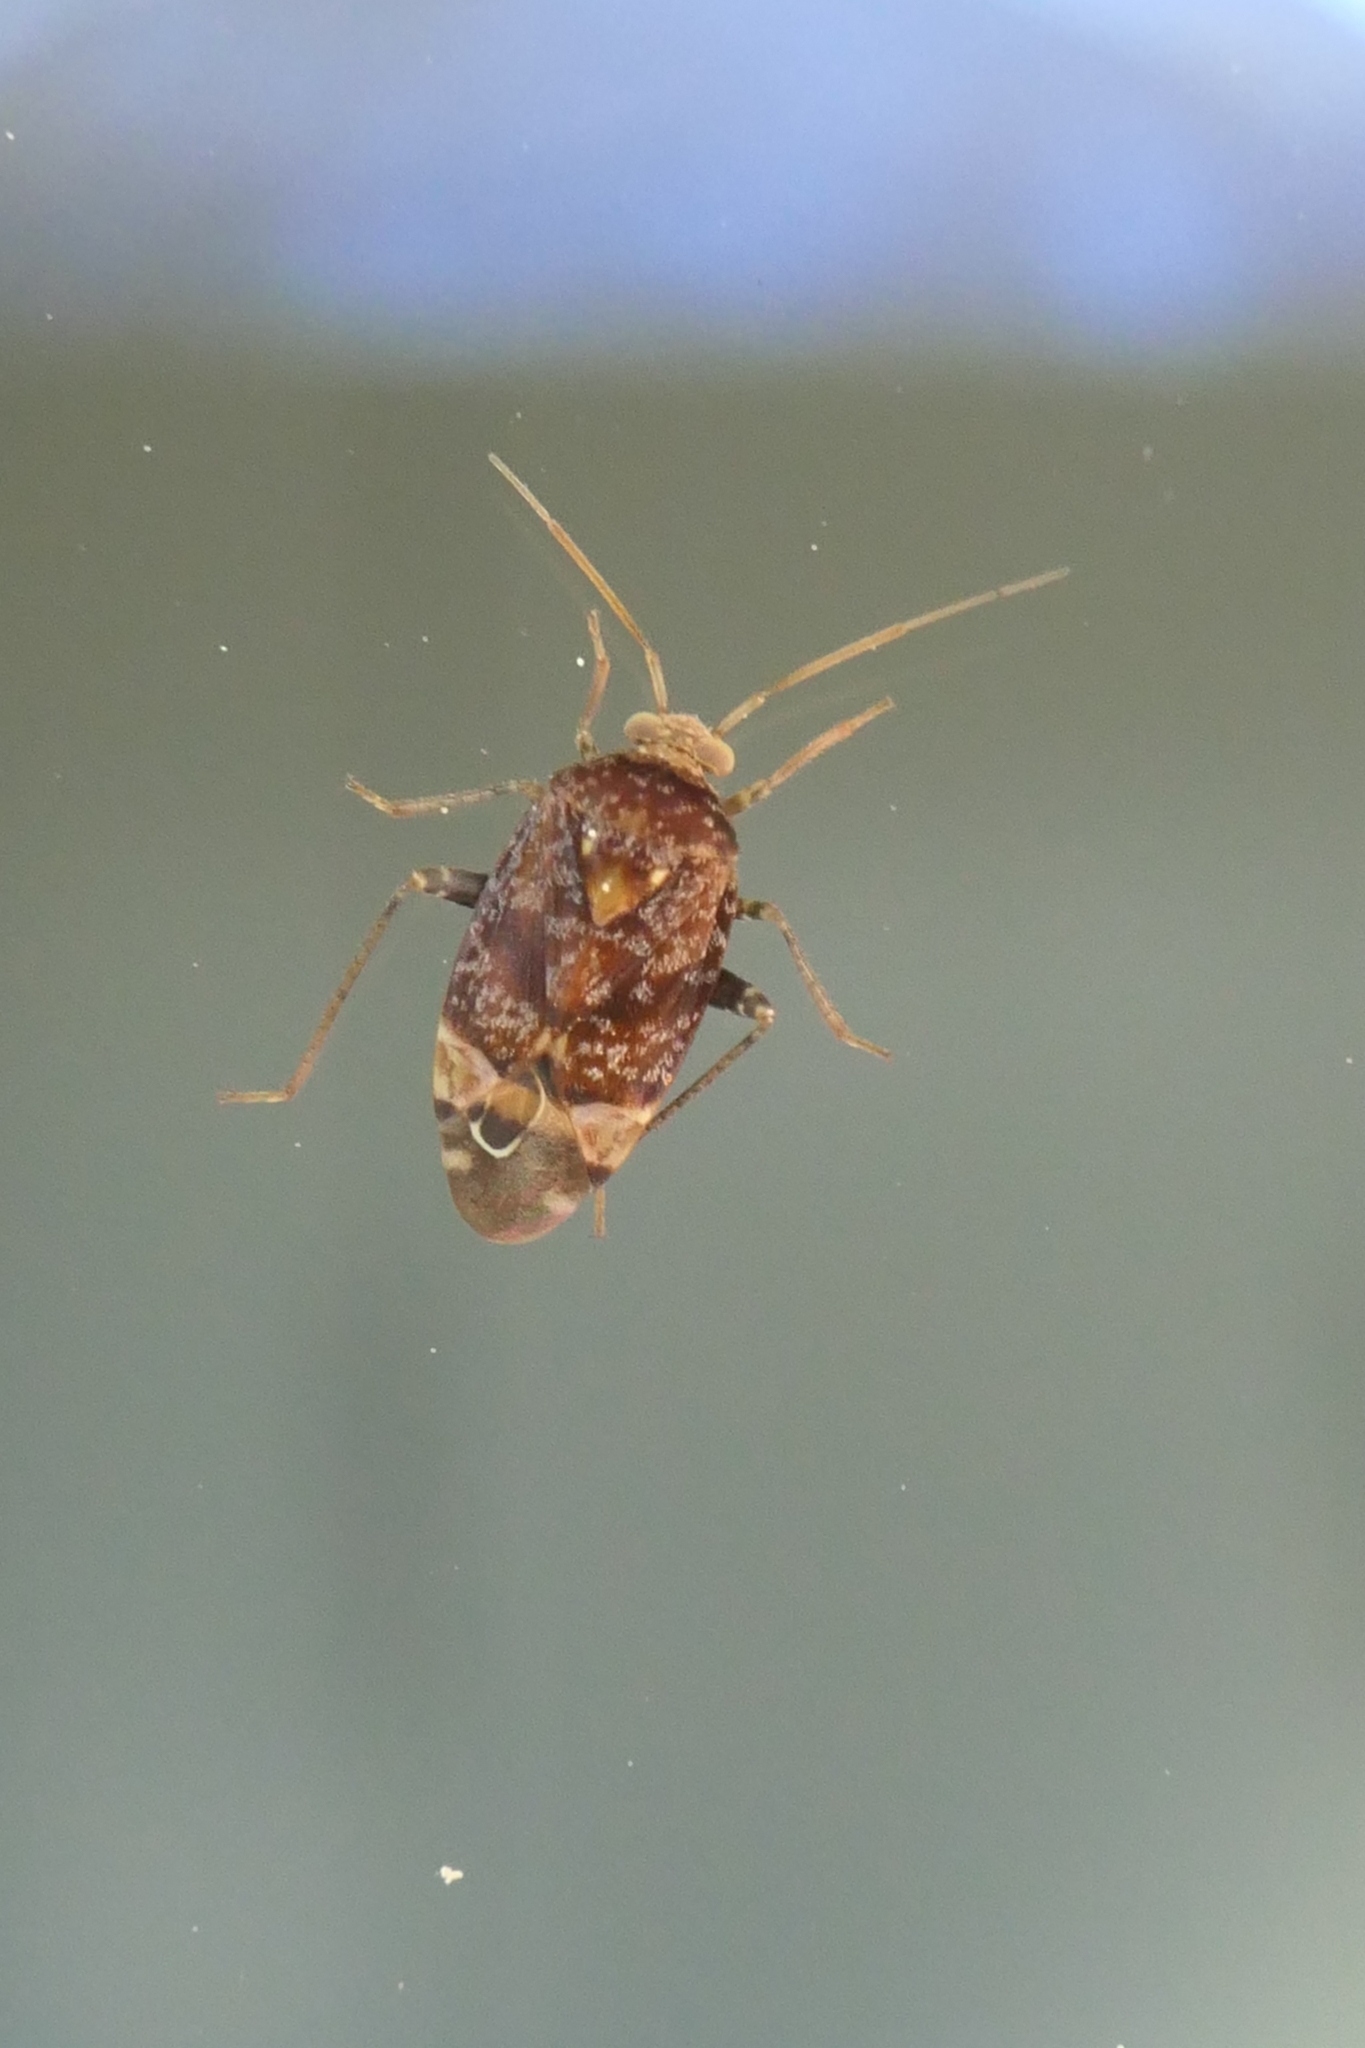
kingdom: Animalia
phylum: Arthropoda
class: Insecta
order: Hemiptera
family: Miridae
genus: Wekamiris
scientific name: Wekamiris auropilosus
